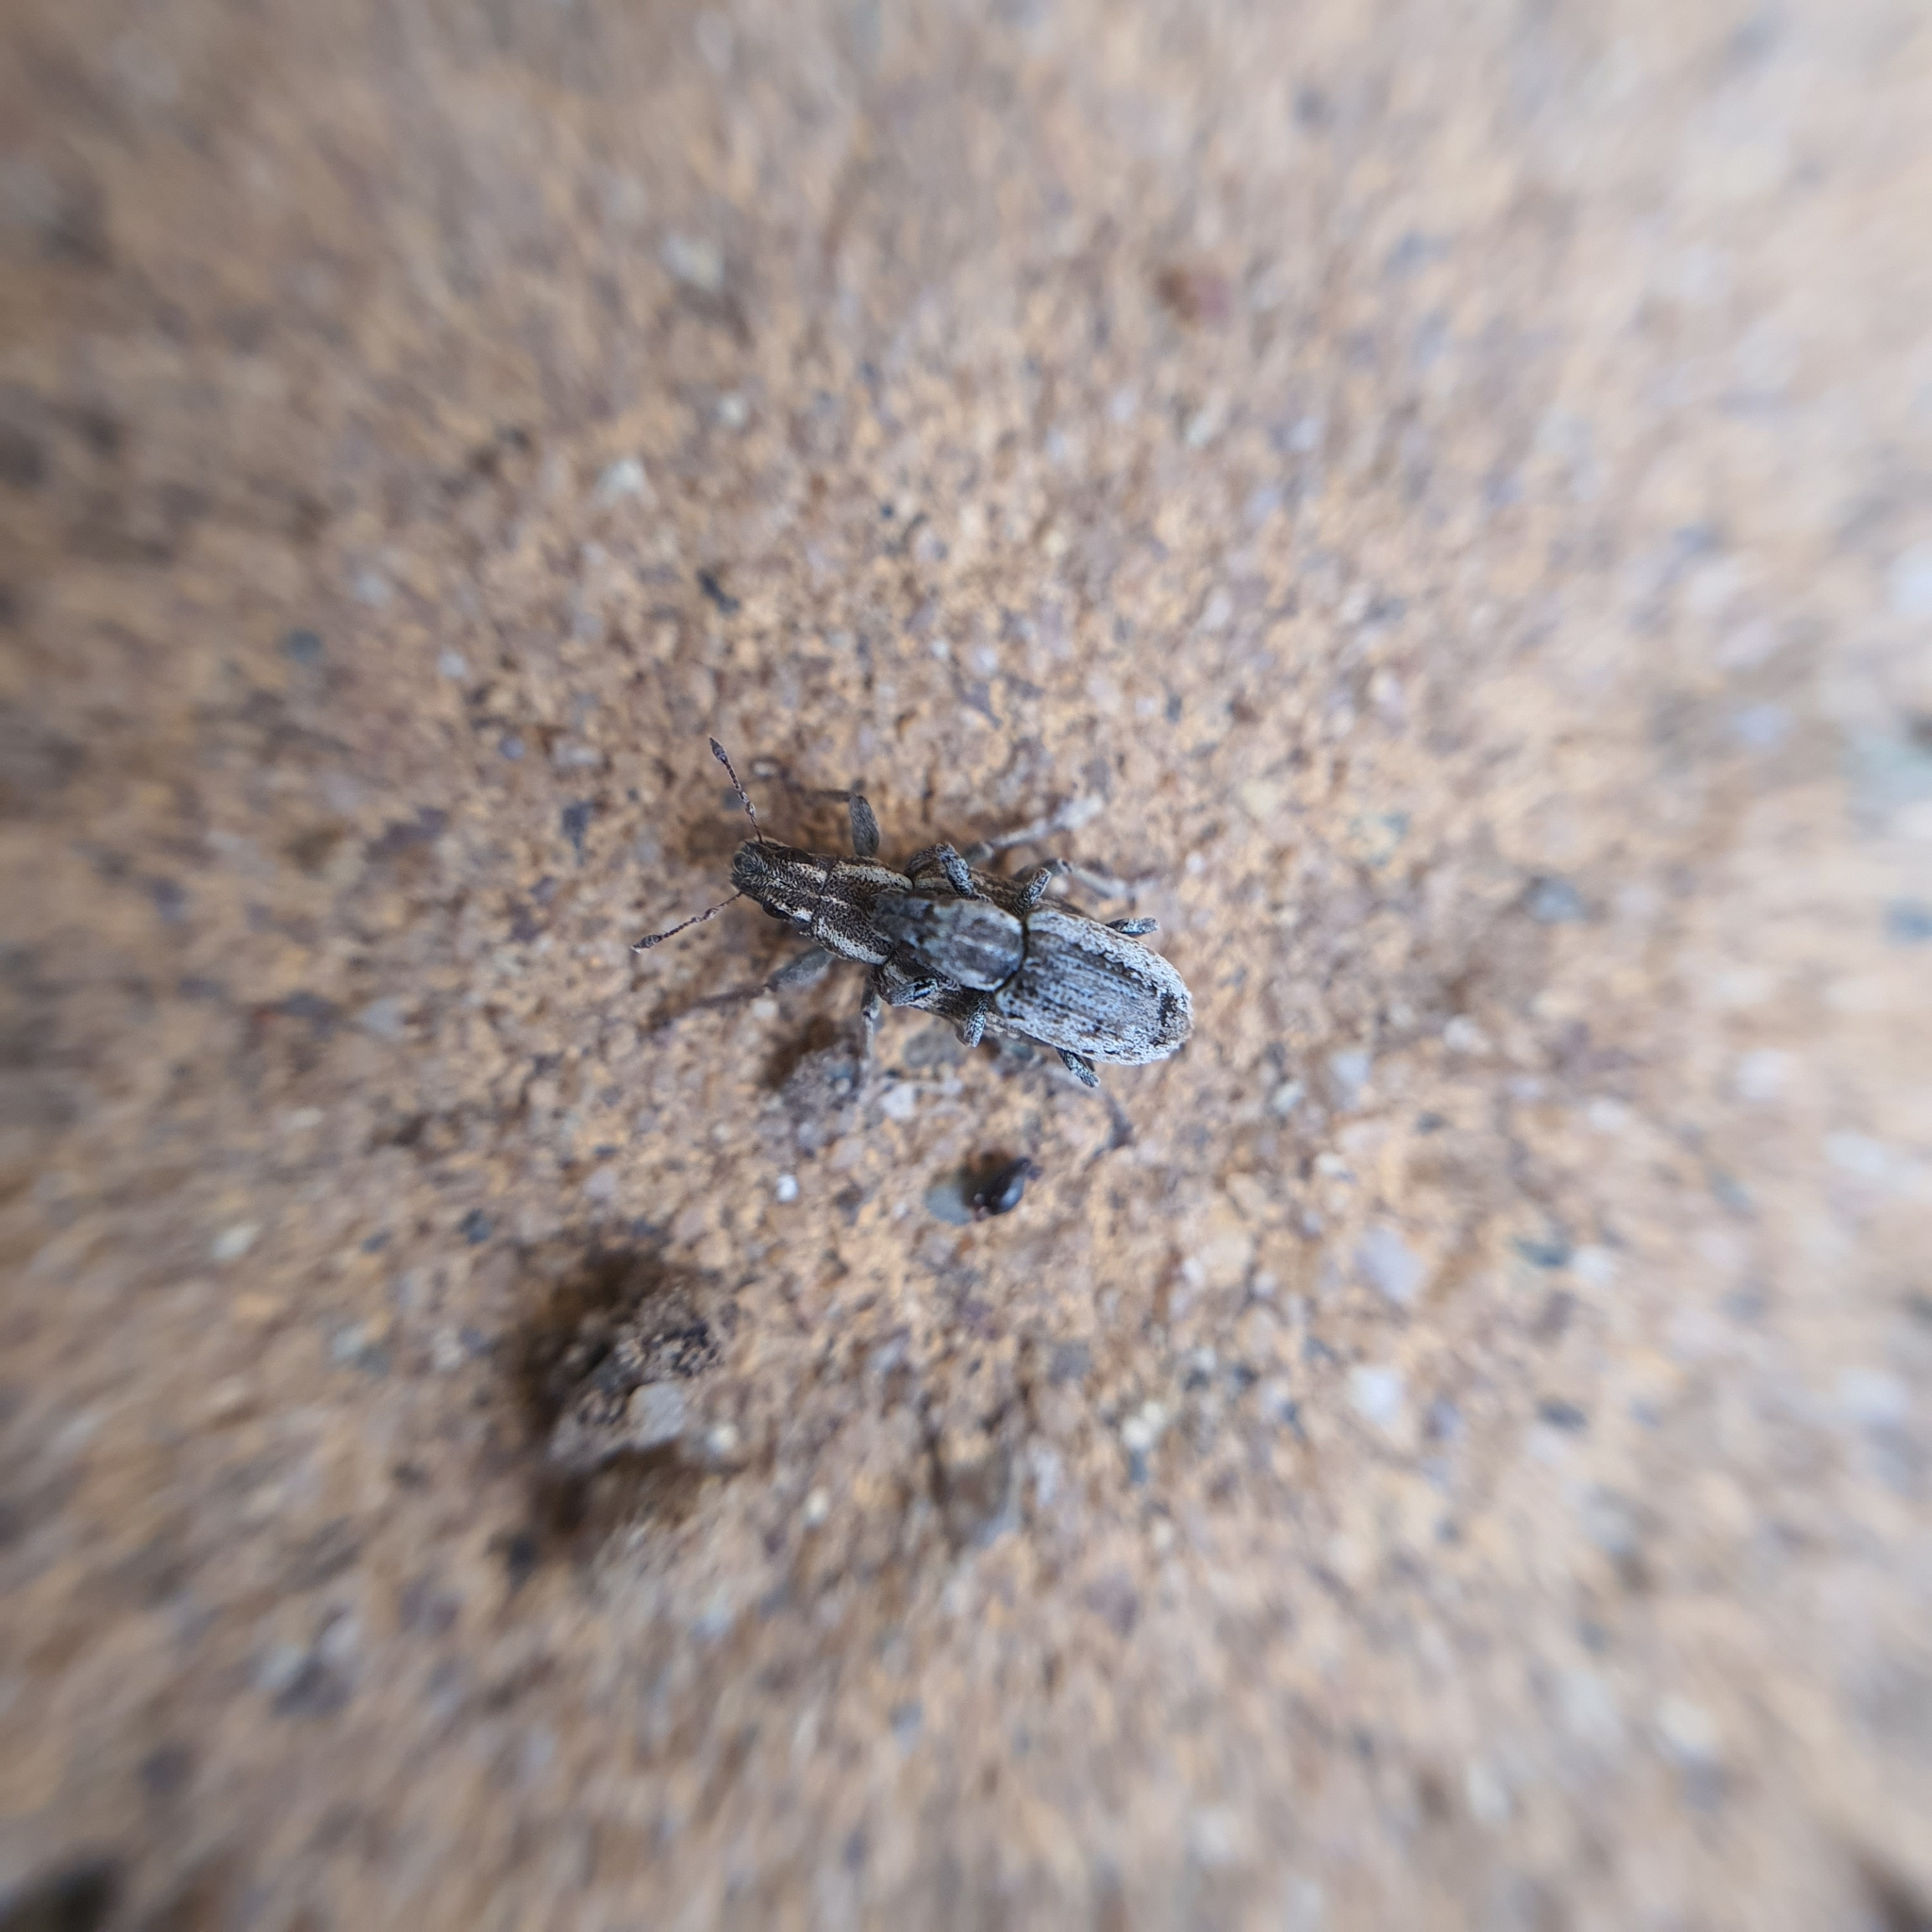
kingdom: Animalia
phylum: Arthropoda
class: Insecta
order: Coleoptera
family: Curculionidae
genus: Sitona
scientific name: Sitona discoideus
